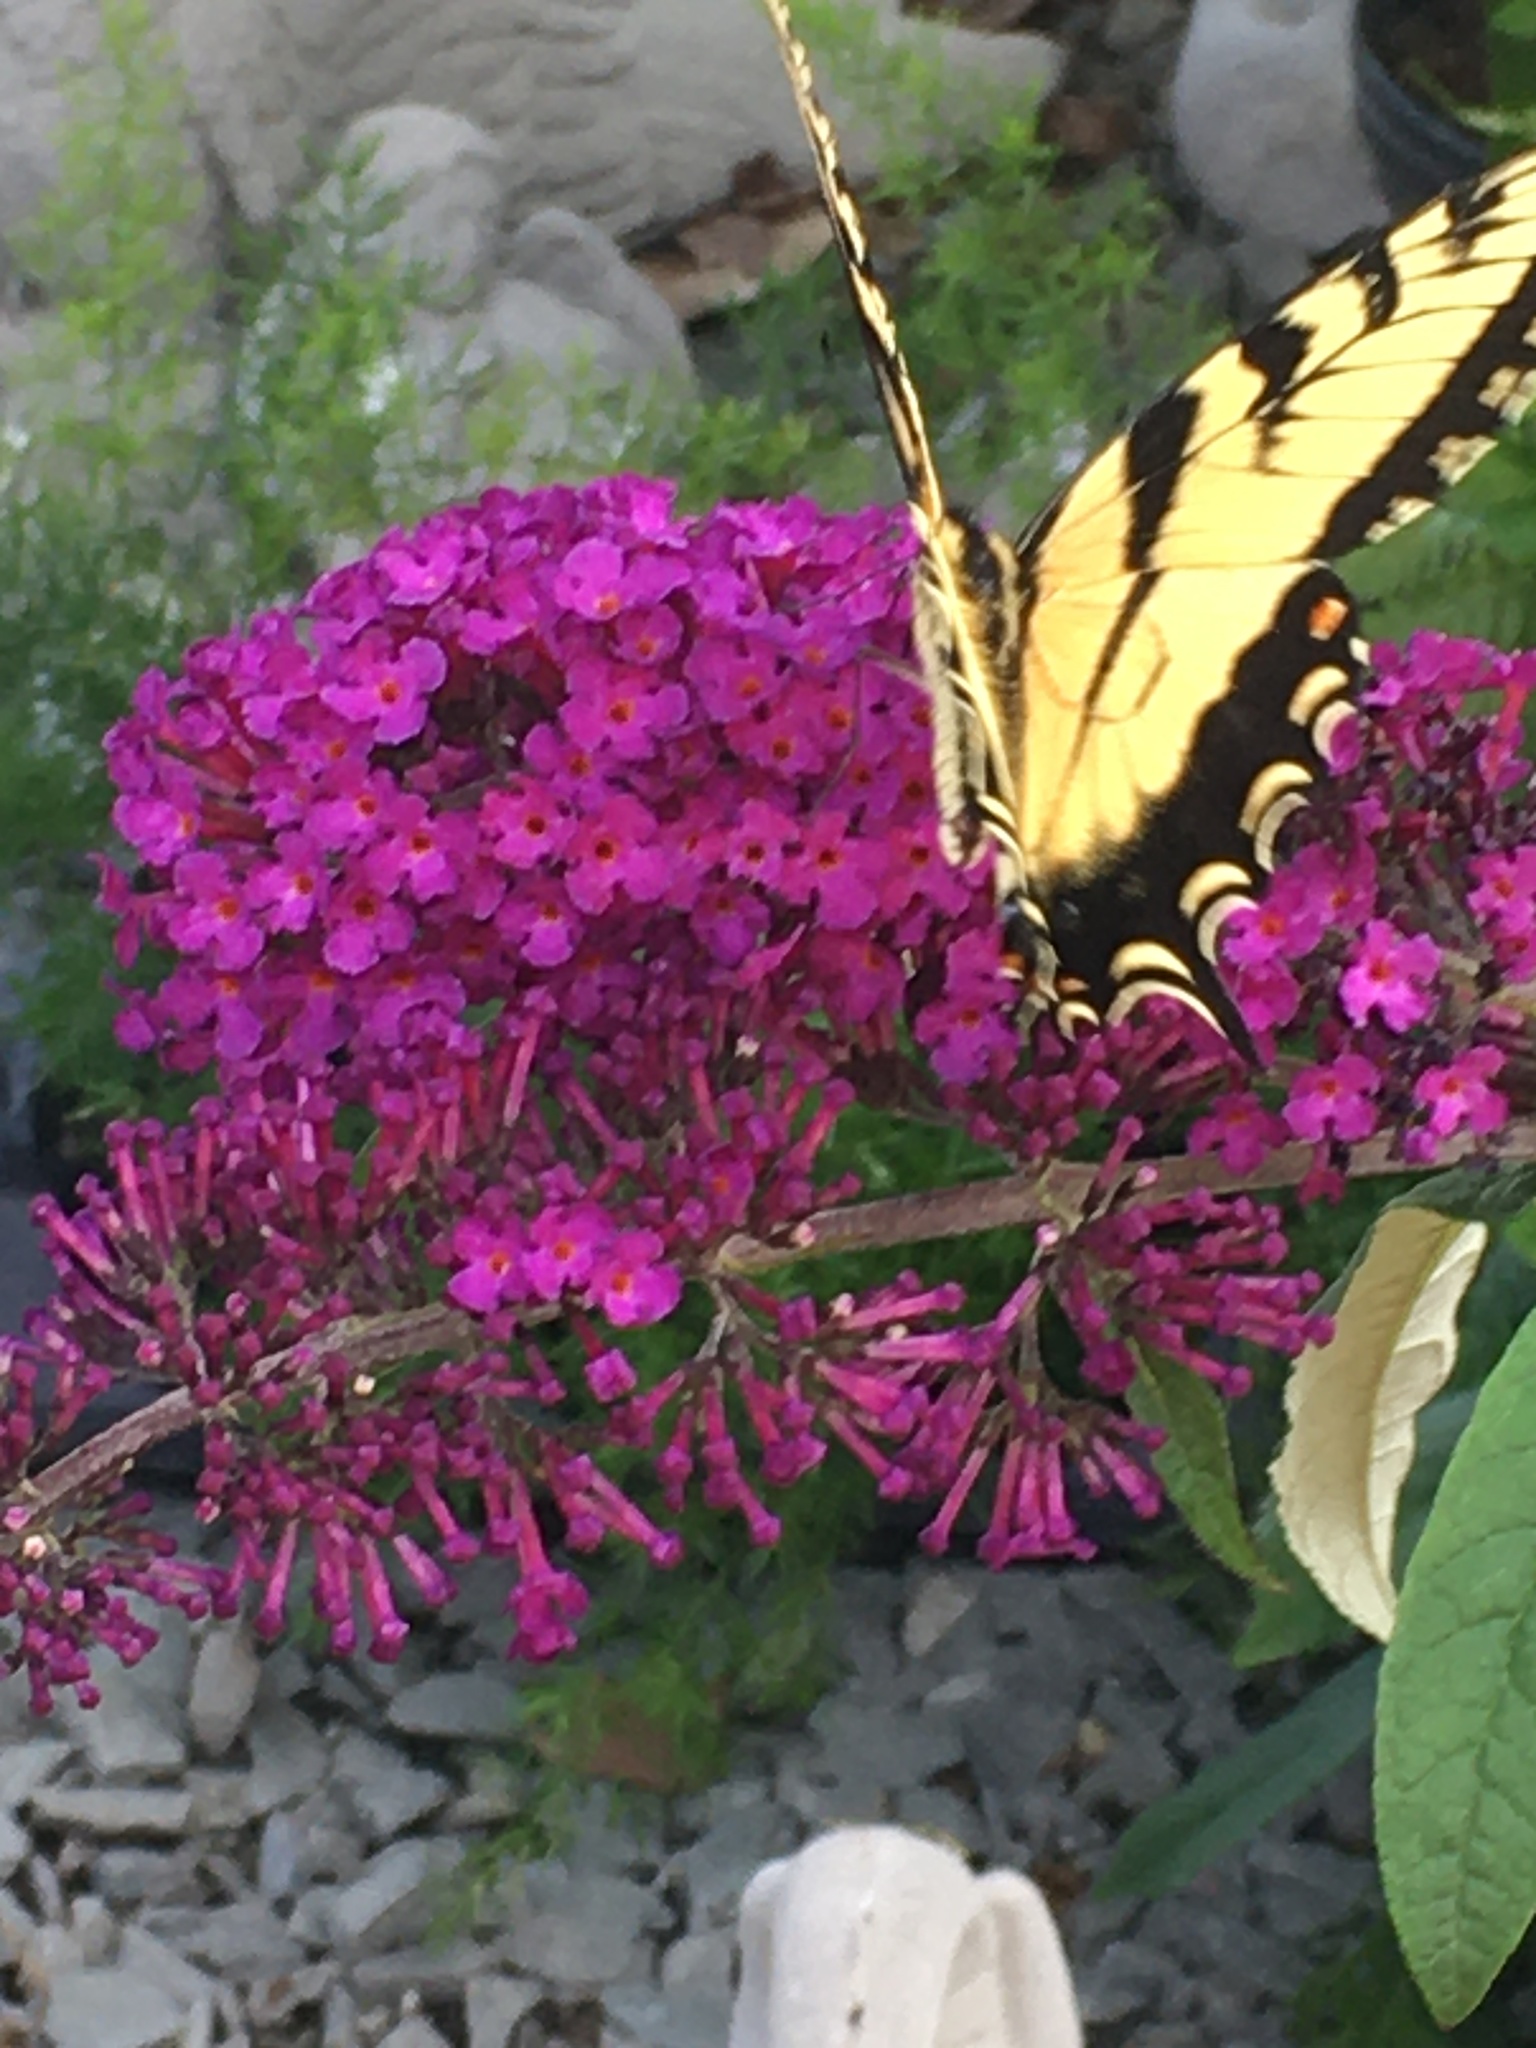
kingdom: Animalia
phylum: Arthropoda
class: Insecta
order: Lepidoptera
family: Papilionidae
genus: Papilio
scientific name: Papilio glaucus
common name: Tiger swallowtail
